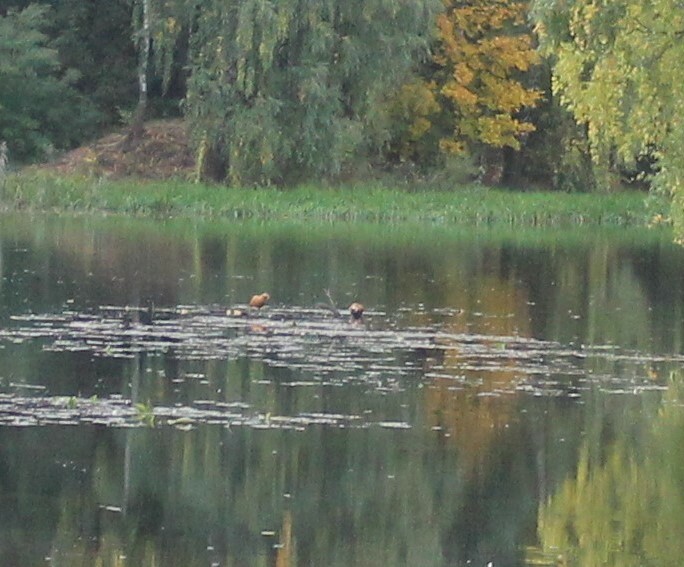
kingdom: Animalia
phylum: Chordata
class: Aves
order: Anseriformes
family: Anatidae
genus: Tadorna
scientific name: Tadorna ferruginea
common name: Ruddy shelduck
